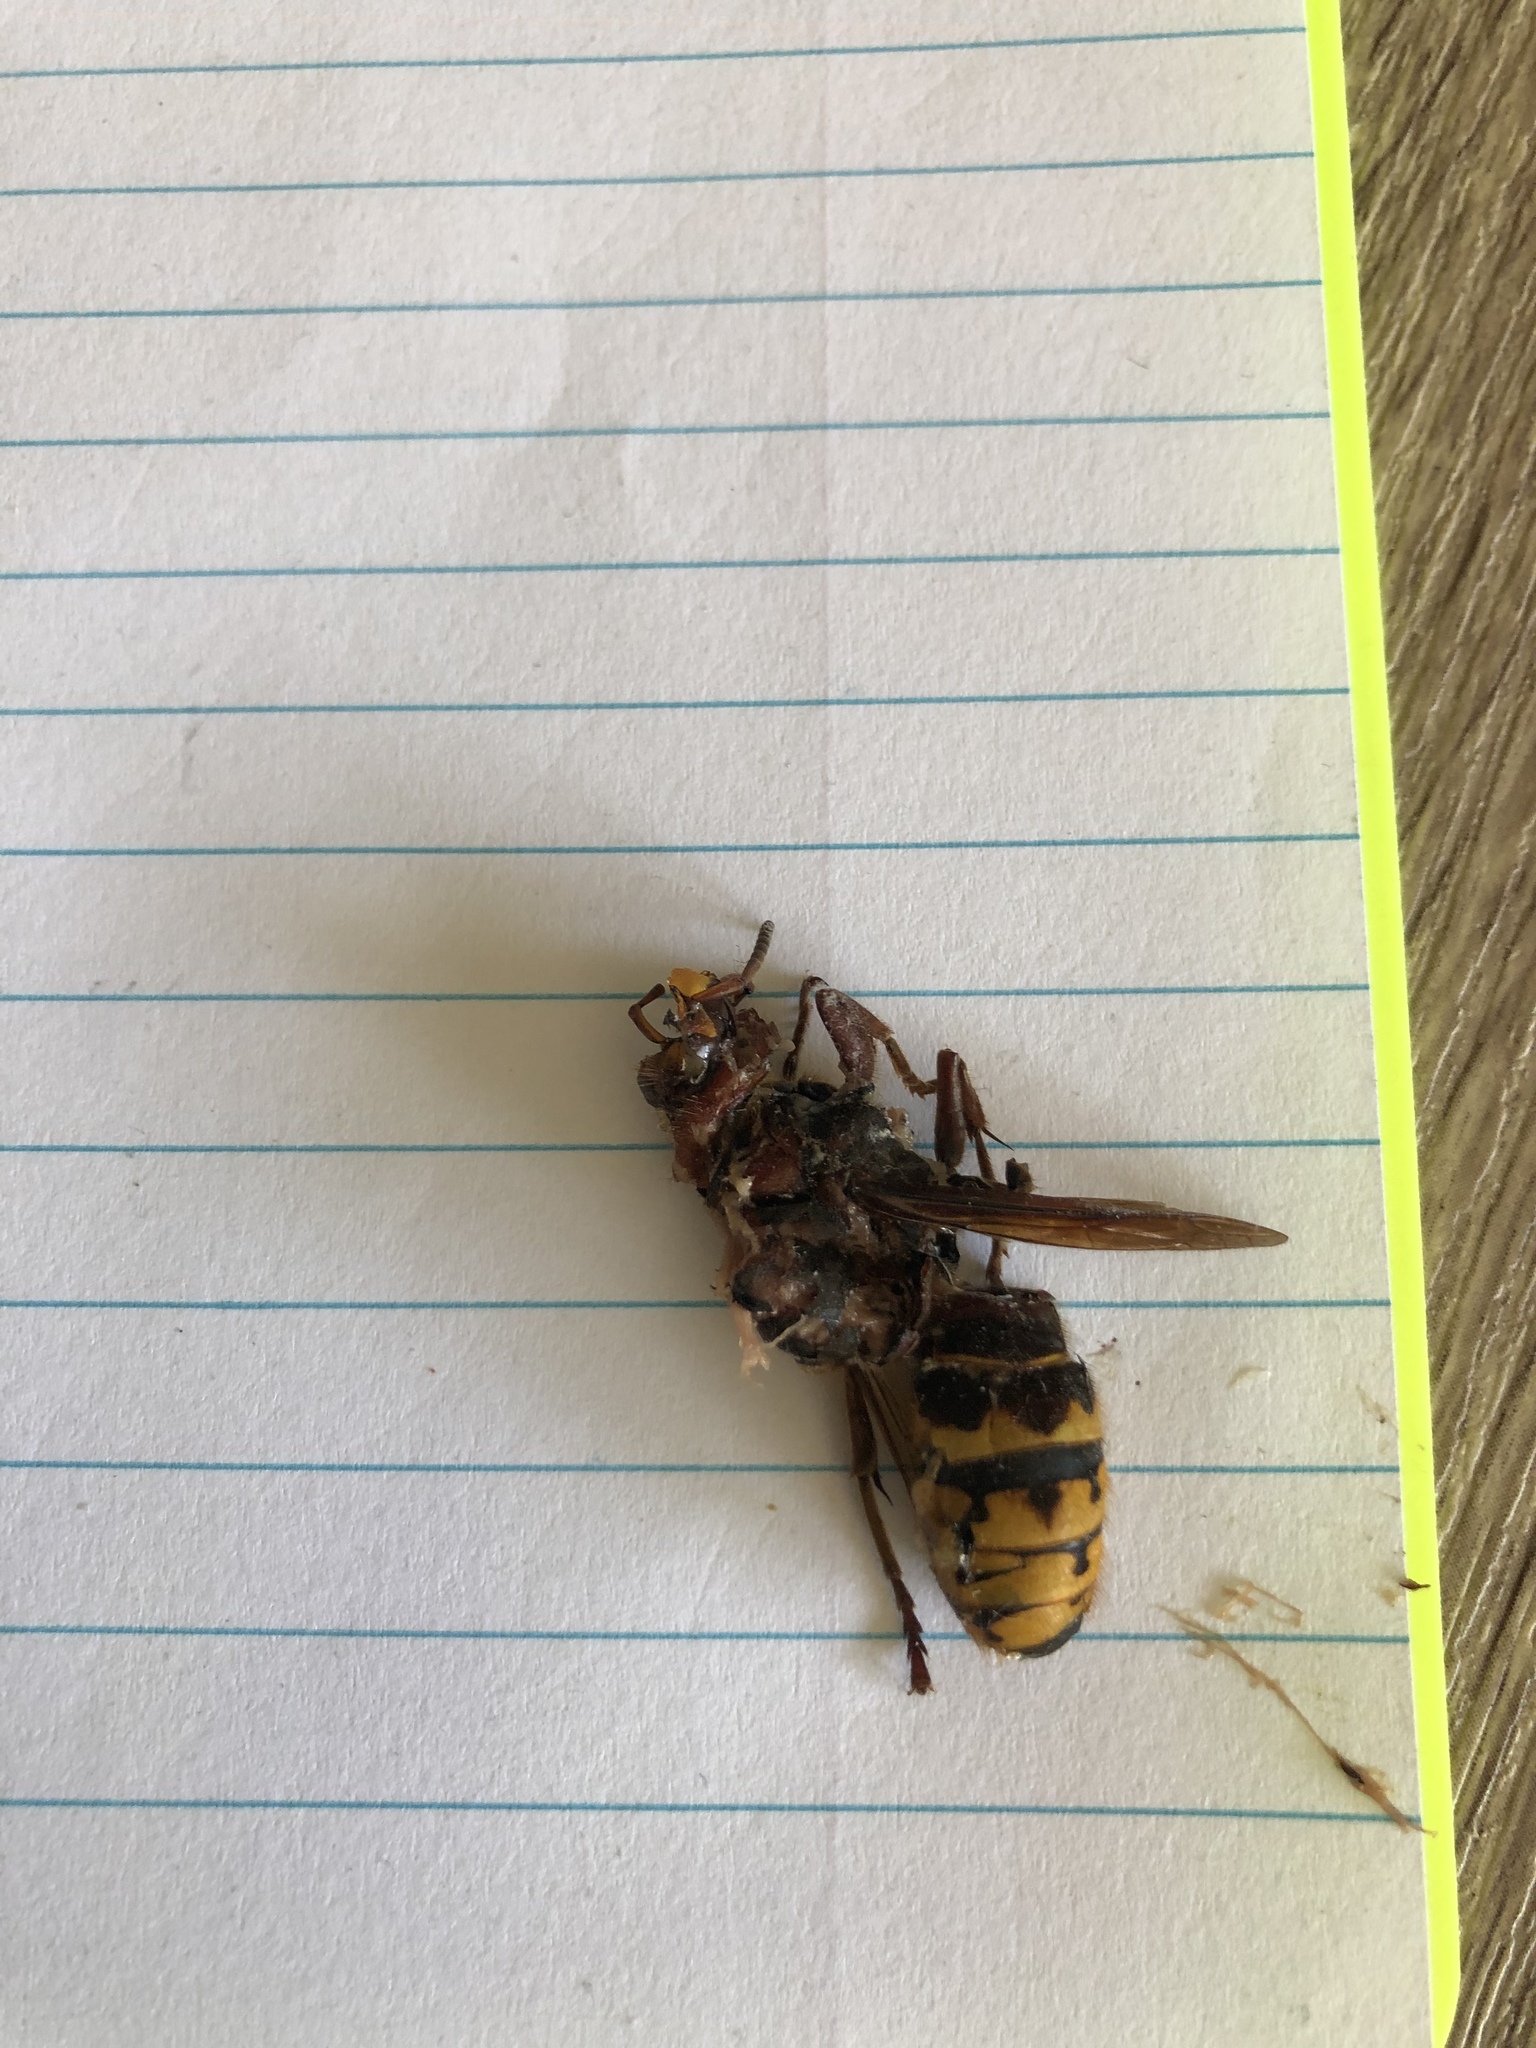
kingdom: Animalia
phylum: Arthropoda
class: Insecta
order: Hymenoptera
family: Vespidae
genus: Vespa
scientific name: Vespa crabro
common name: Hornet
